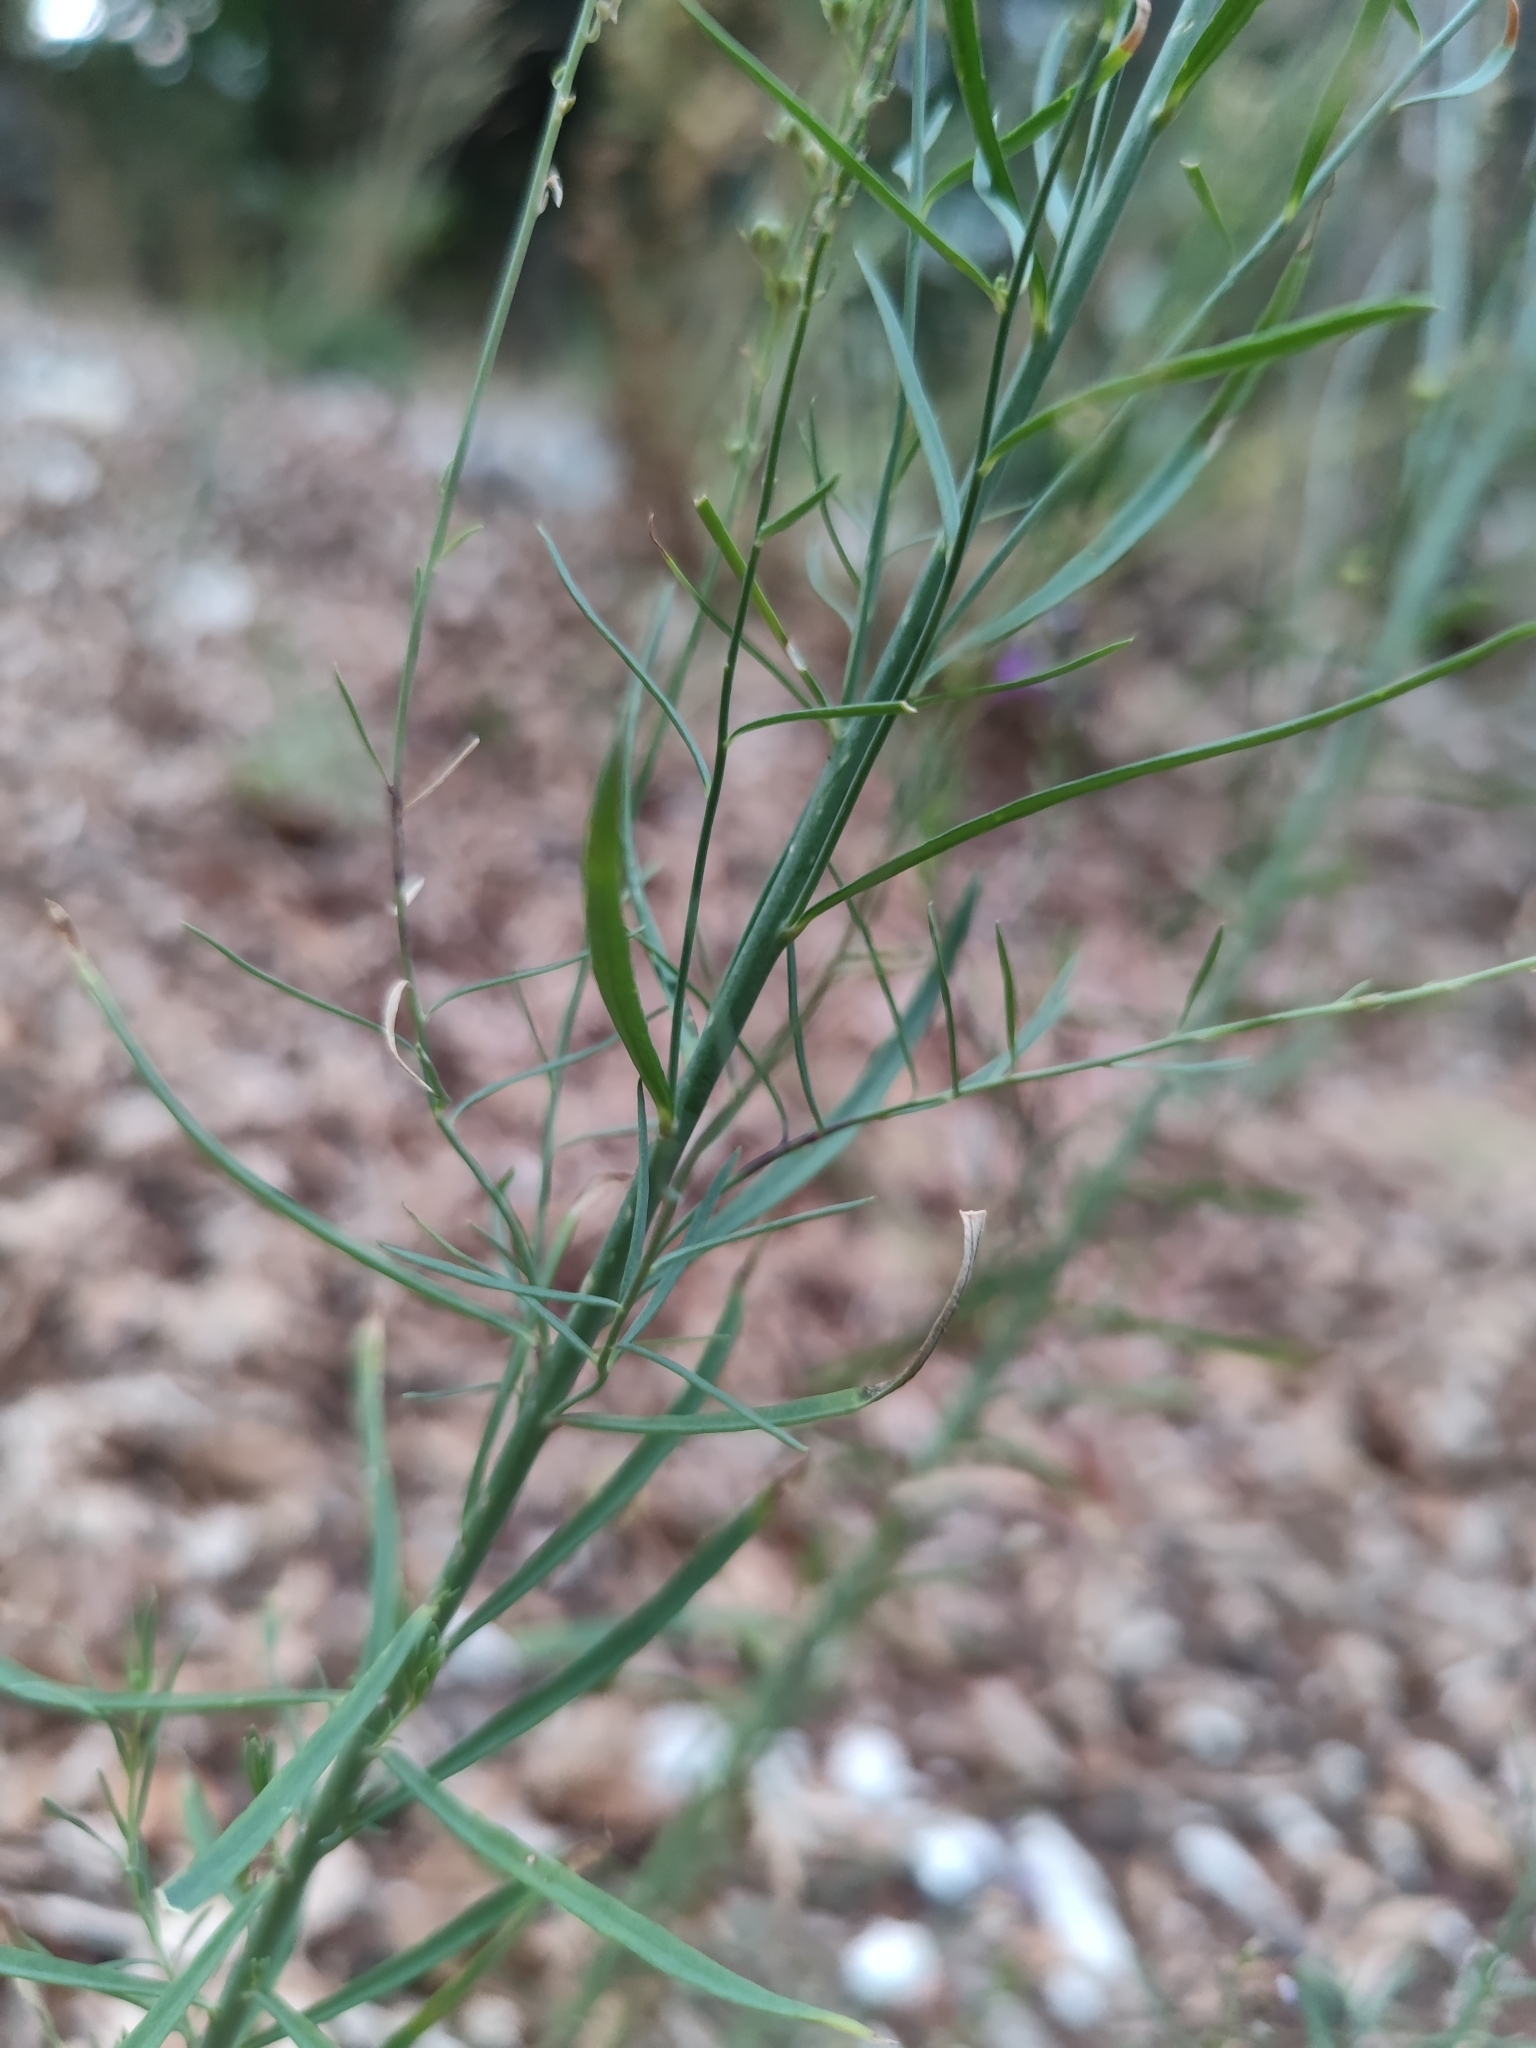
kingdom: Plantae
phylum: Tracheophyta
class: Magnoliopsida
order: Lamiales
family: Plantaginaceae
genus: Linaria
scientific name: Linaria purpurea
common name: Purple toadflax
